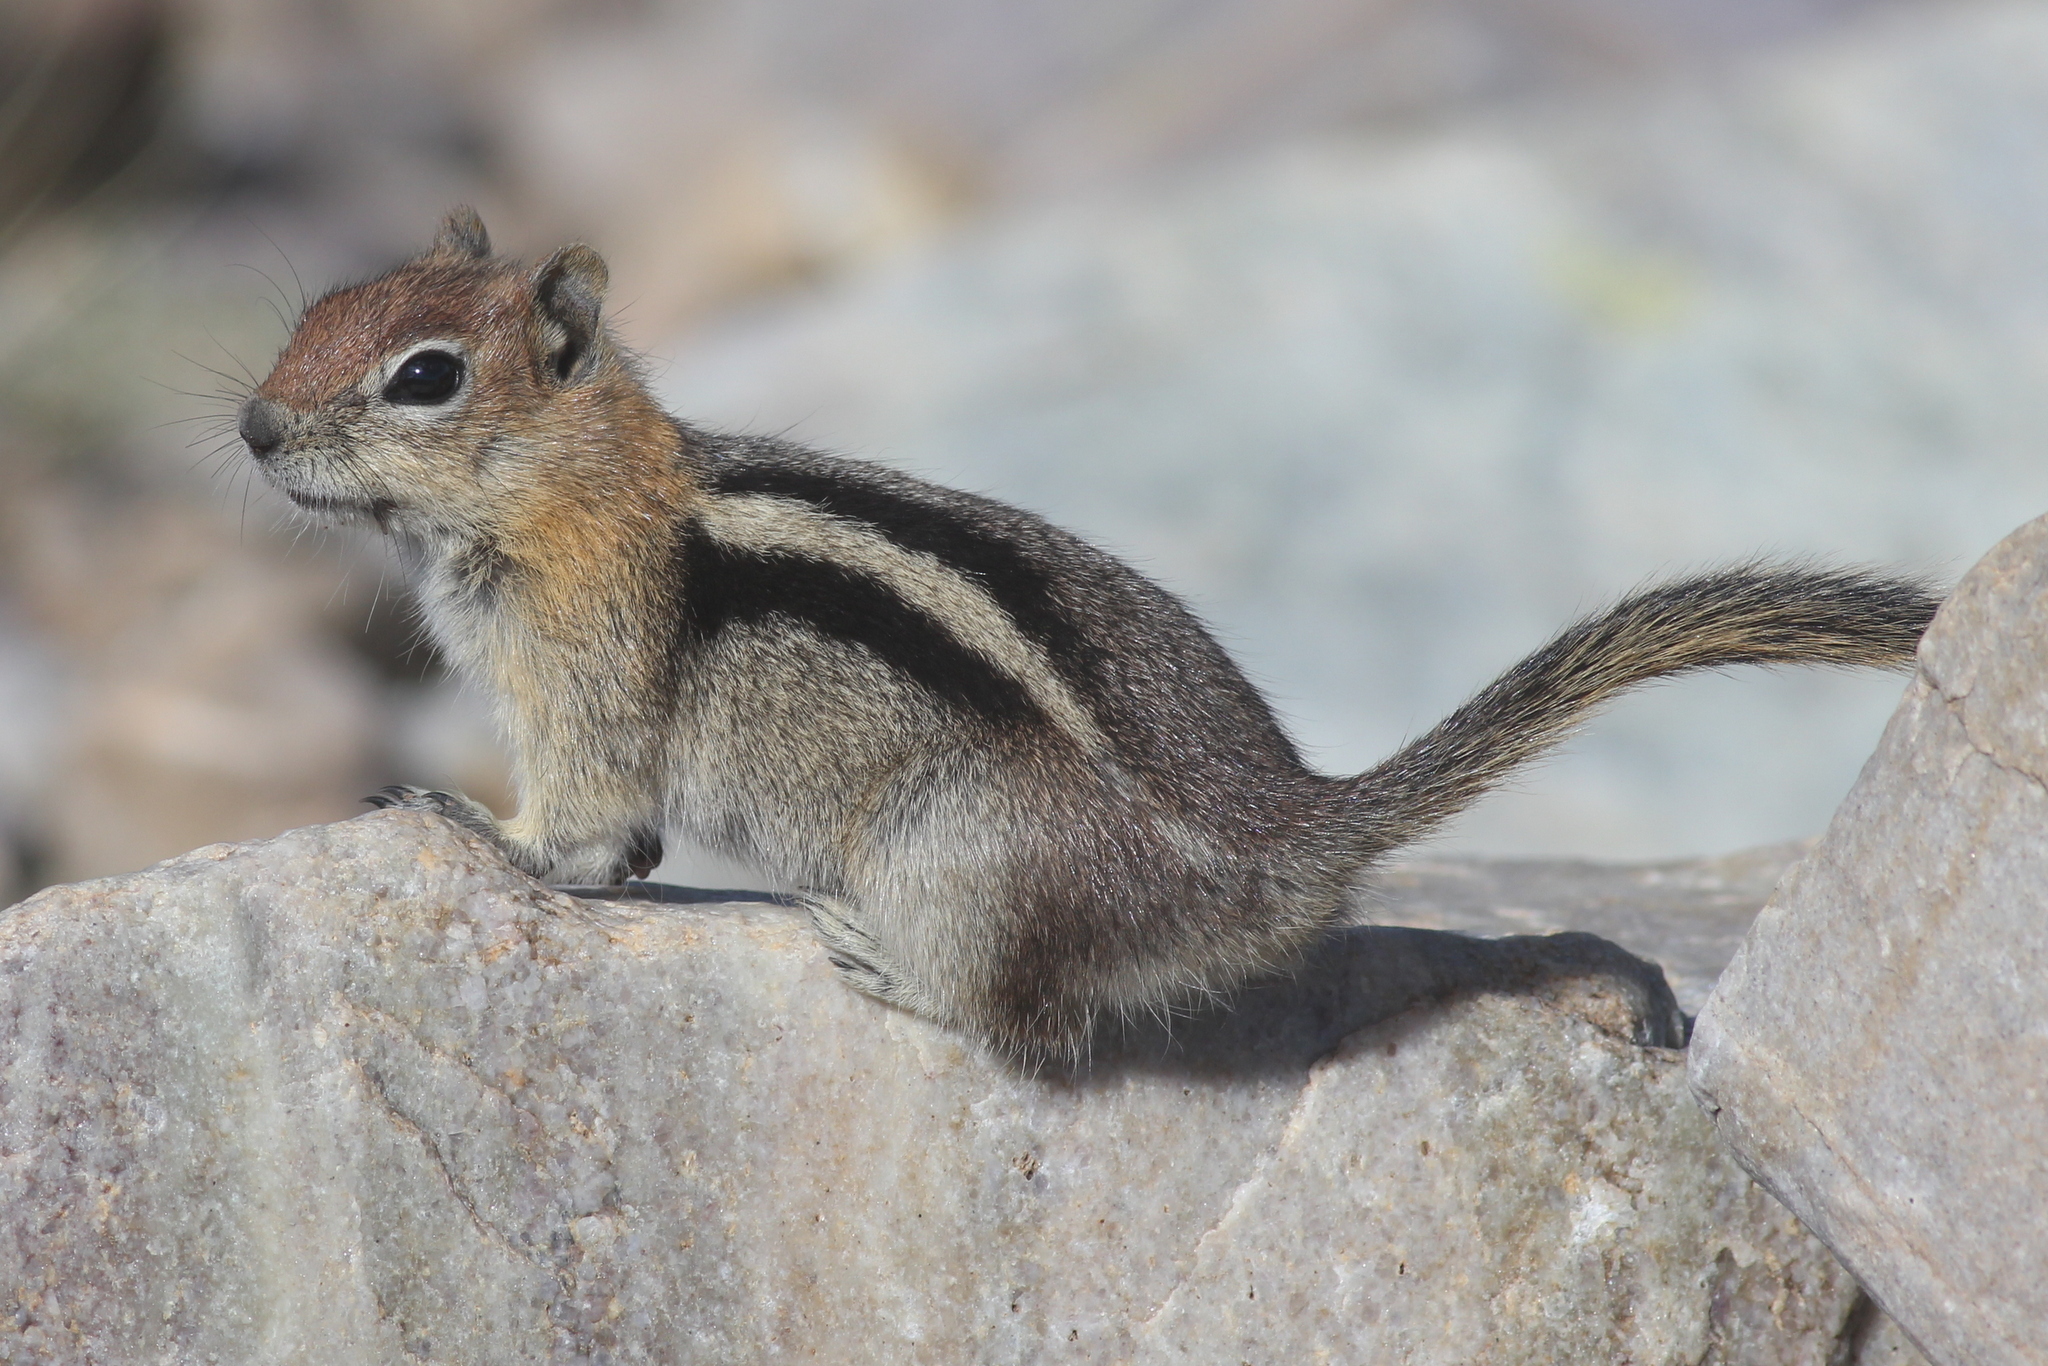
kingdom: Animalia
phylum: Chordata
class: Mammalia
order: Rodentia
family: Sciuridae
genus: Callospermophilus
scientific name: Callospermophilus lateralis
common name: Golden-mantled ground squirrel
